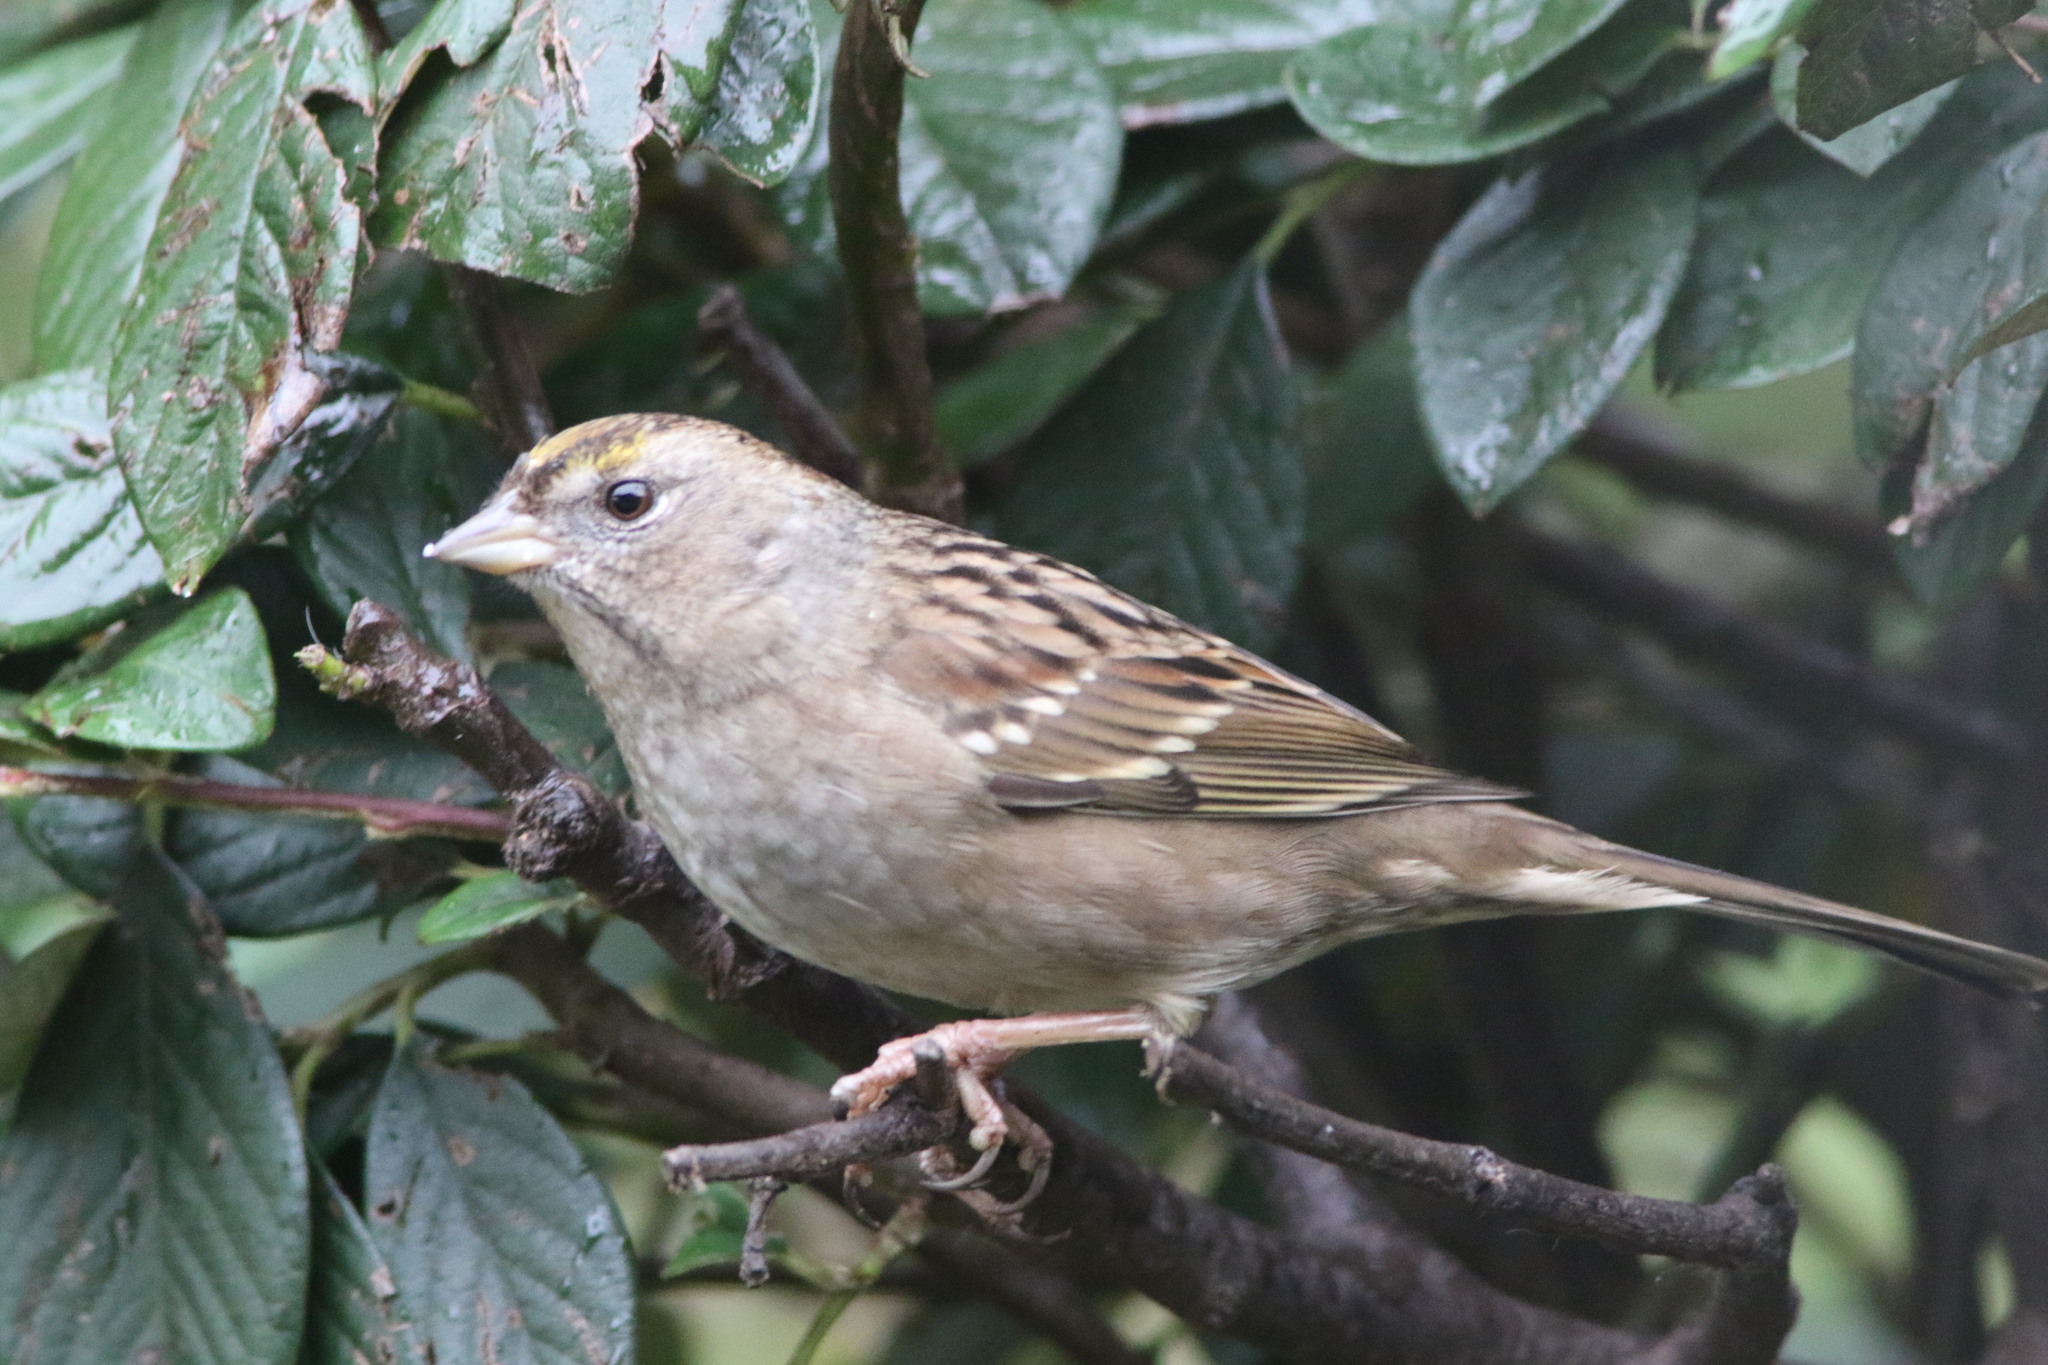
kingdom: Animalia
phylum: Chordata
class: Aves
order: Passeriformes
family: Passerellidae
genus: Zonotrichia
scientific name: Zonotrichia atricapilla
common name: Golden-crowned sparrow
